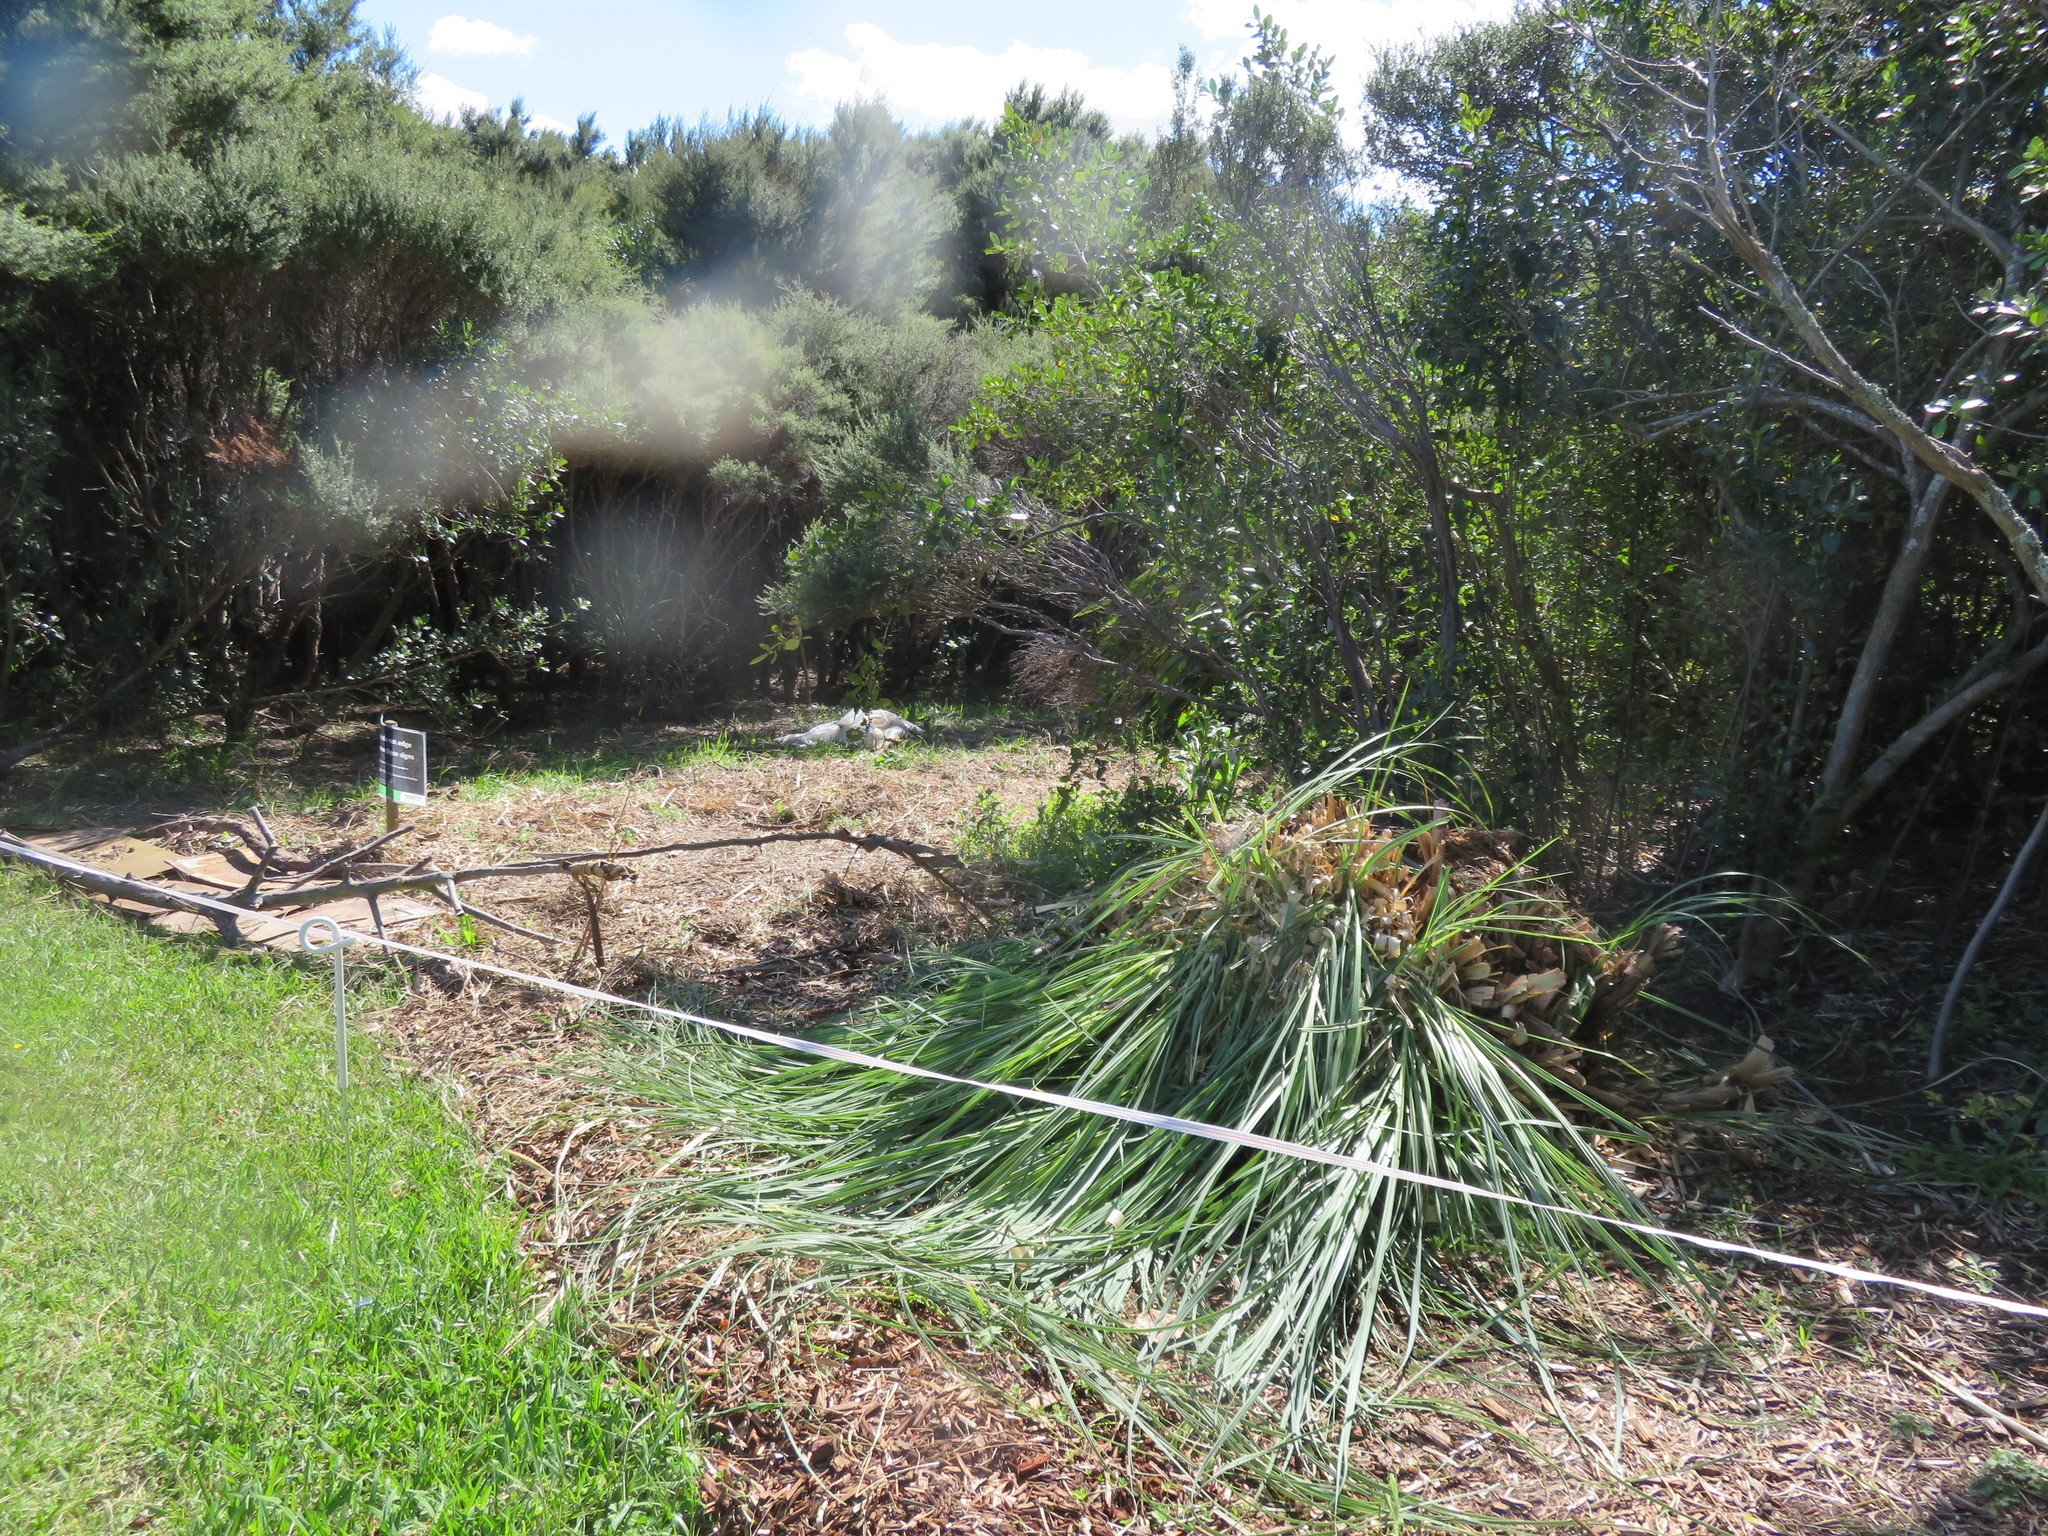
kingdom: Plantae
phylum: Tracheophyta
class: Liliopsida
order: Poales
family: Poaceae
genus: Cortaderia
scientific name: Cortaderia selloana
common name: Uruguayan pampas grass
